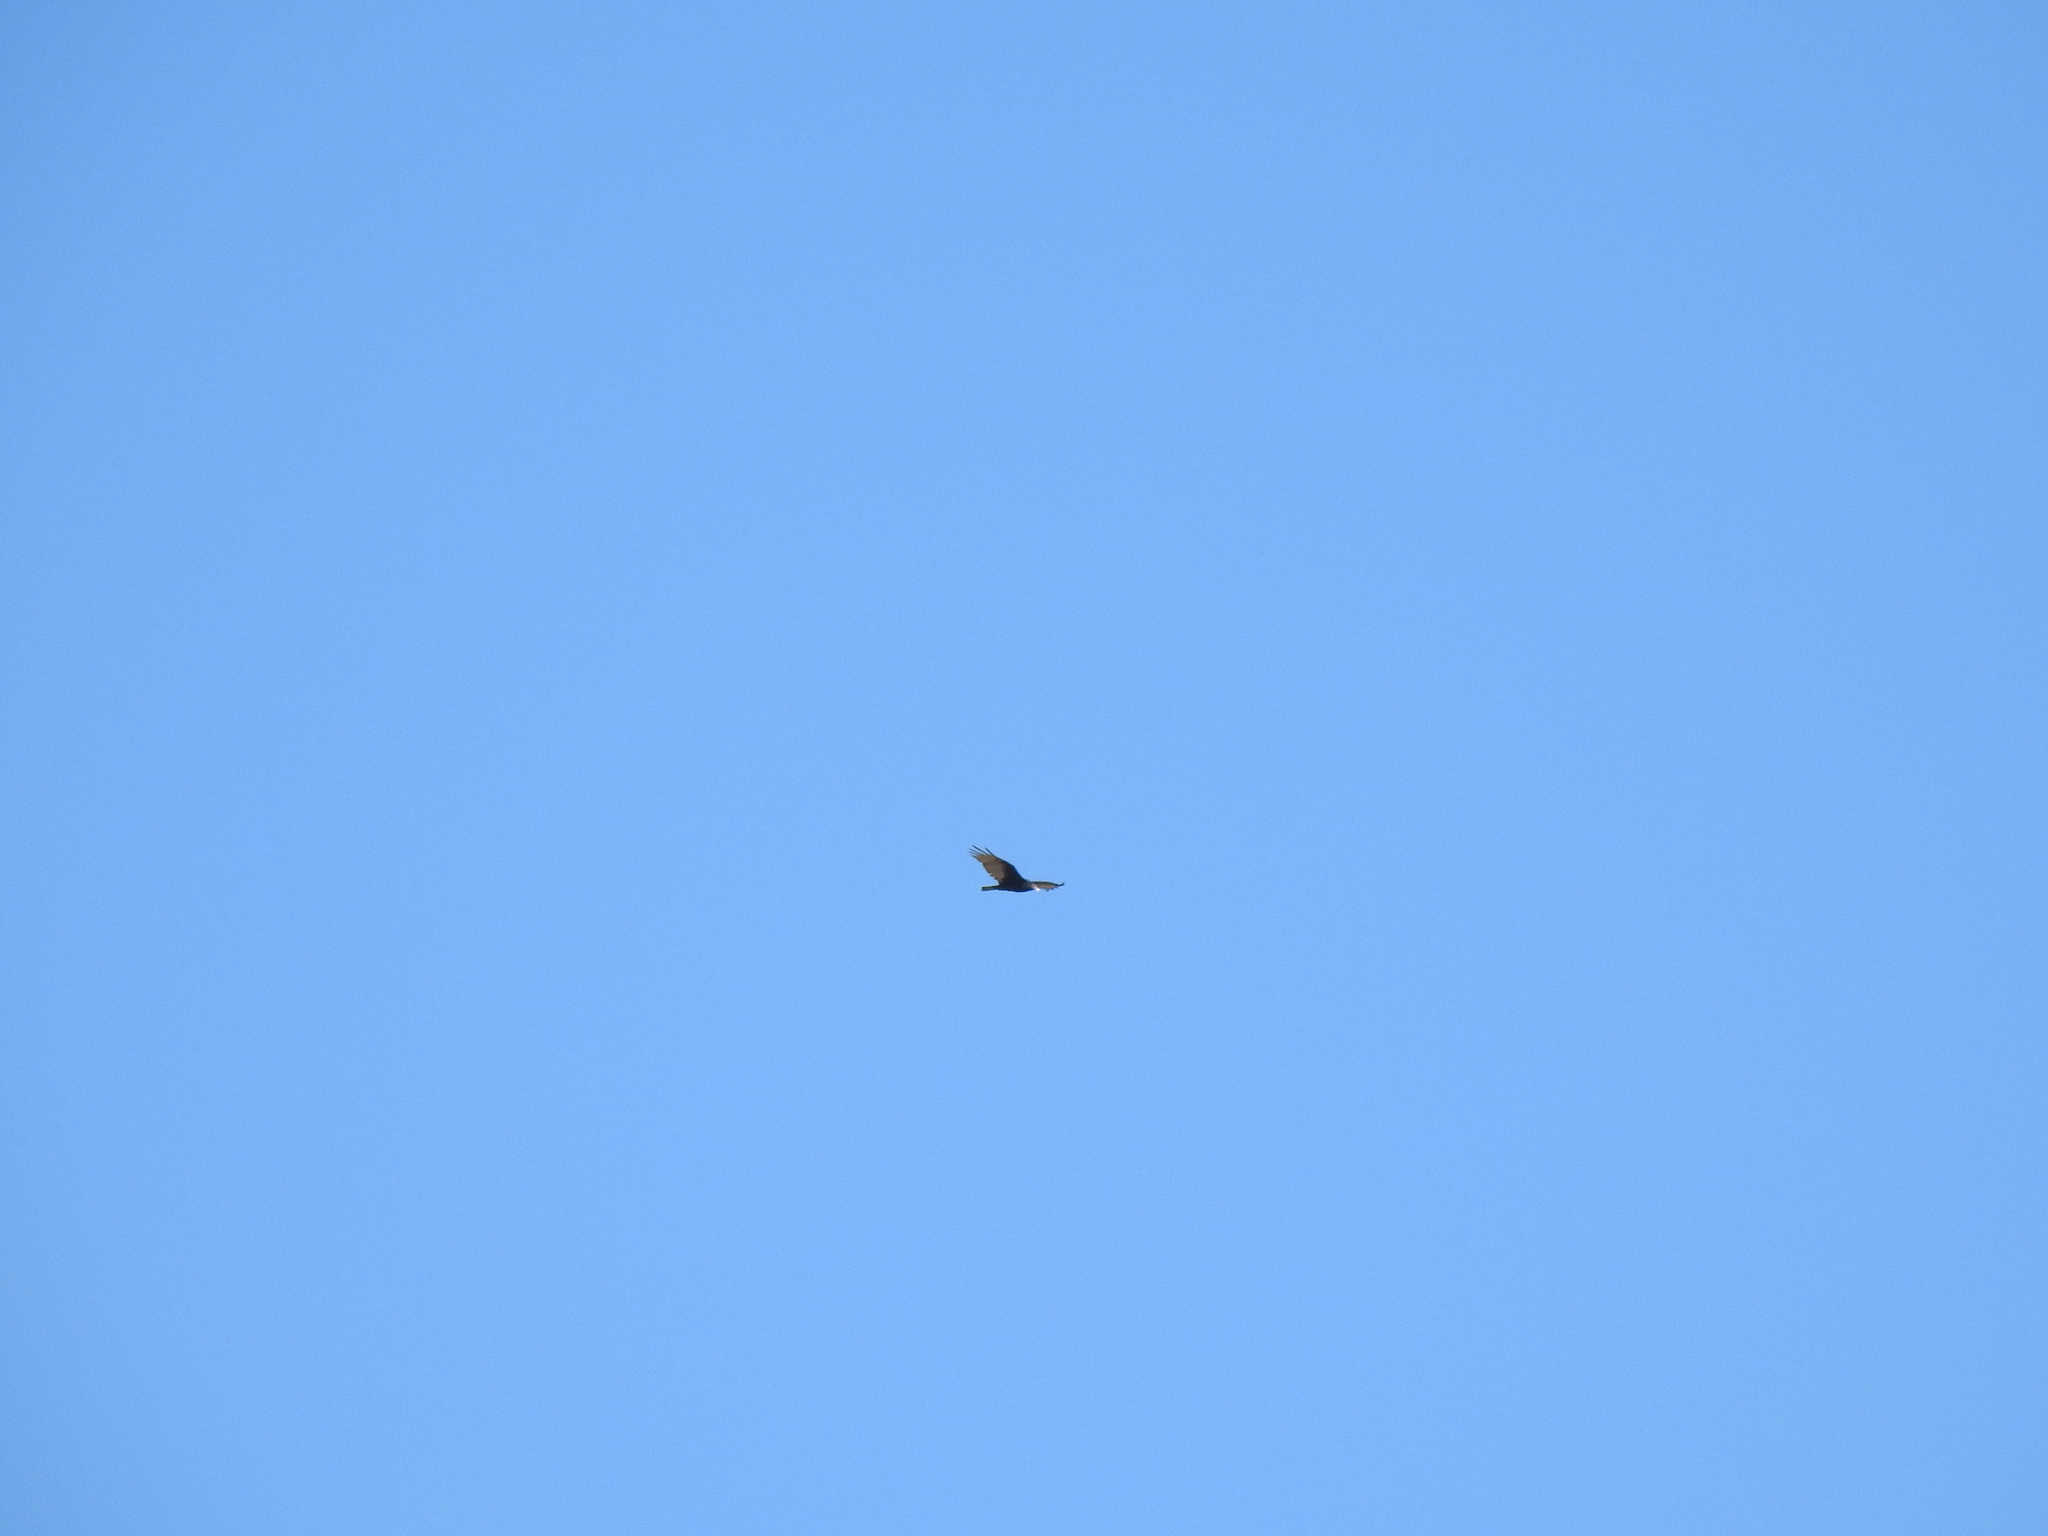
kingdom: Animalia
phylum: Chordata
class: Aves
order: Accipitriformes
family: Cathartidae
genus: Cathartes
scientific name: Cathartes aura
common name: Turkey vulture
